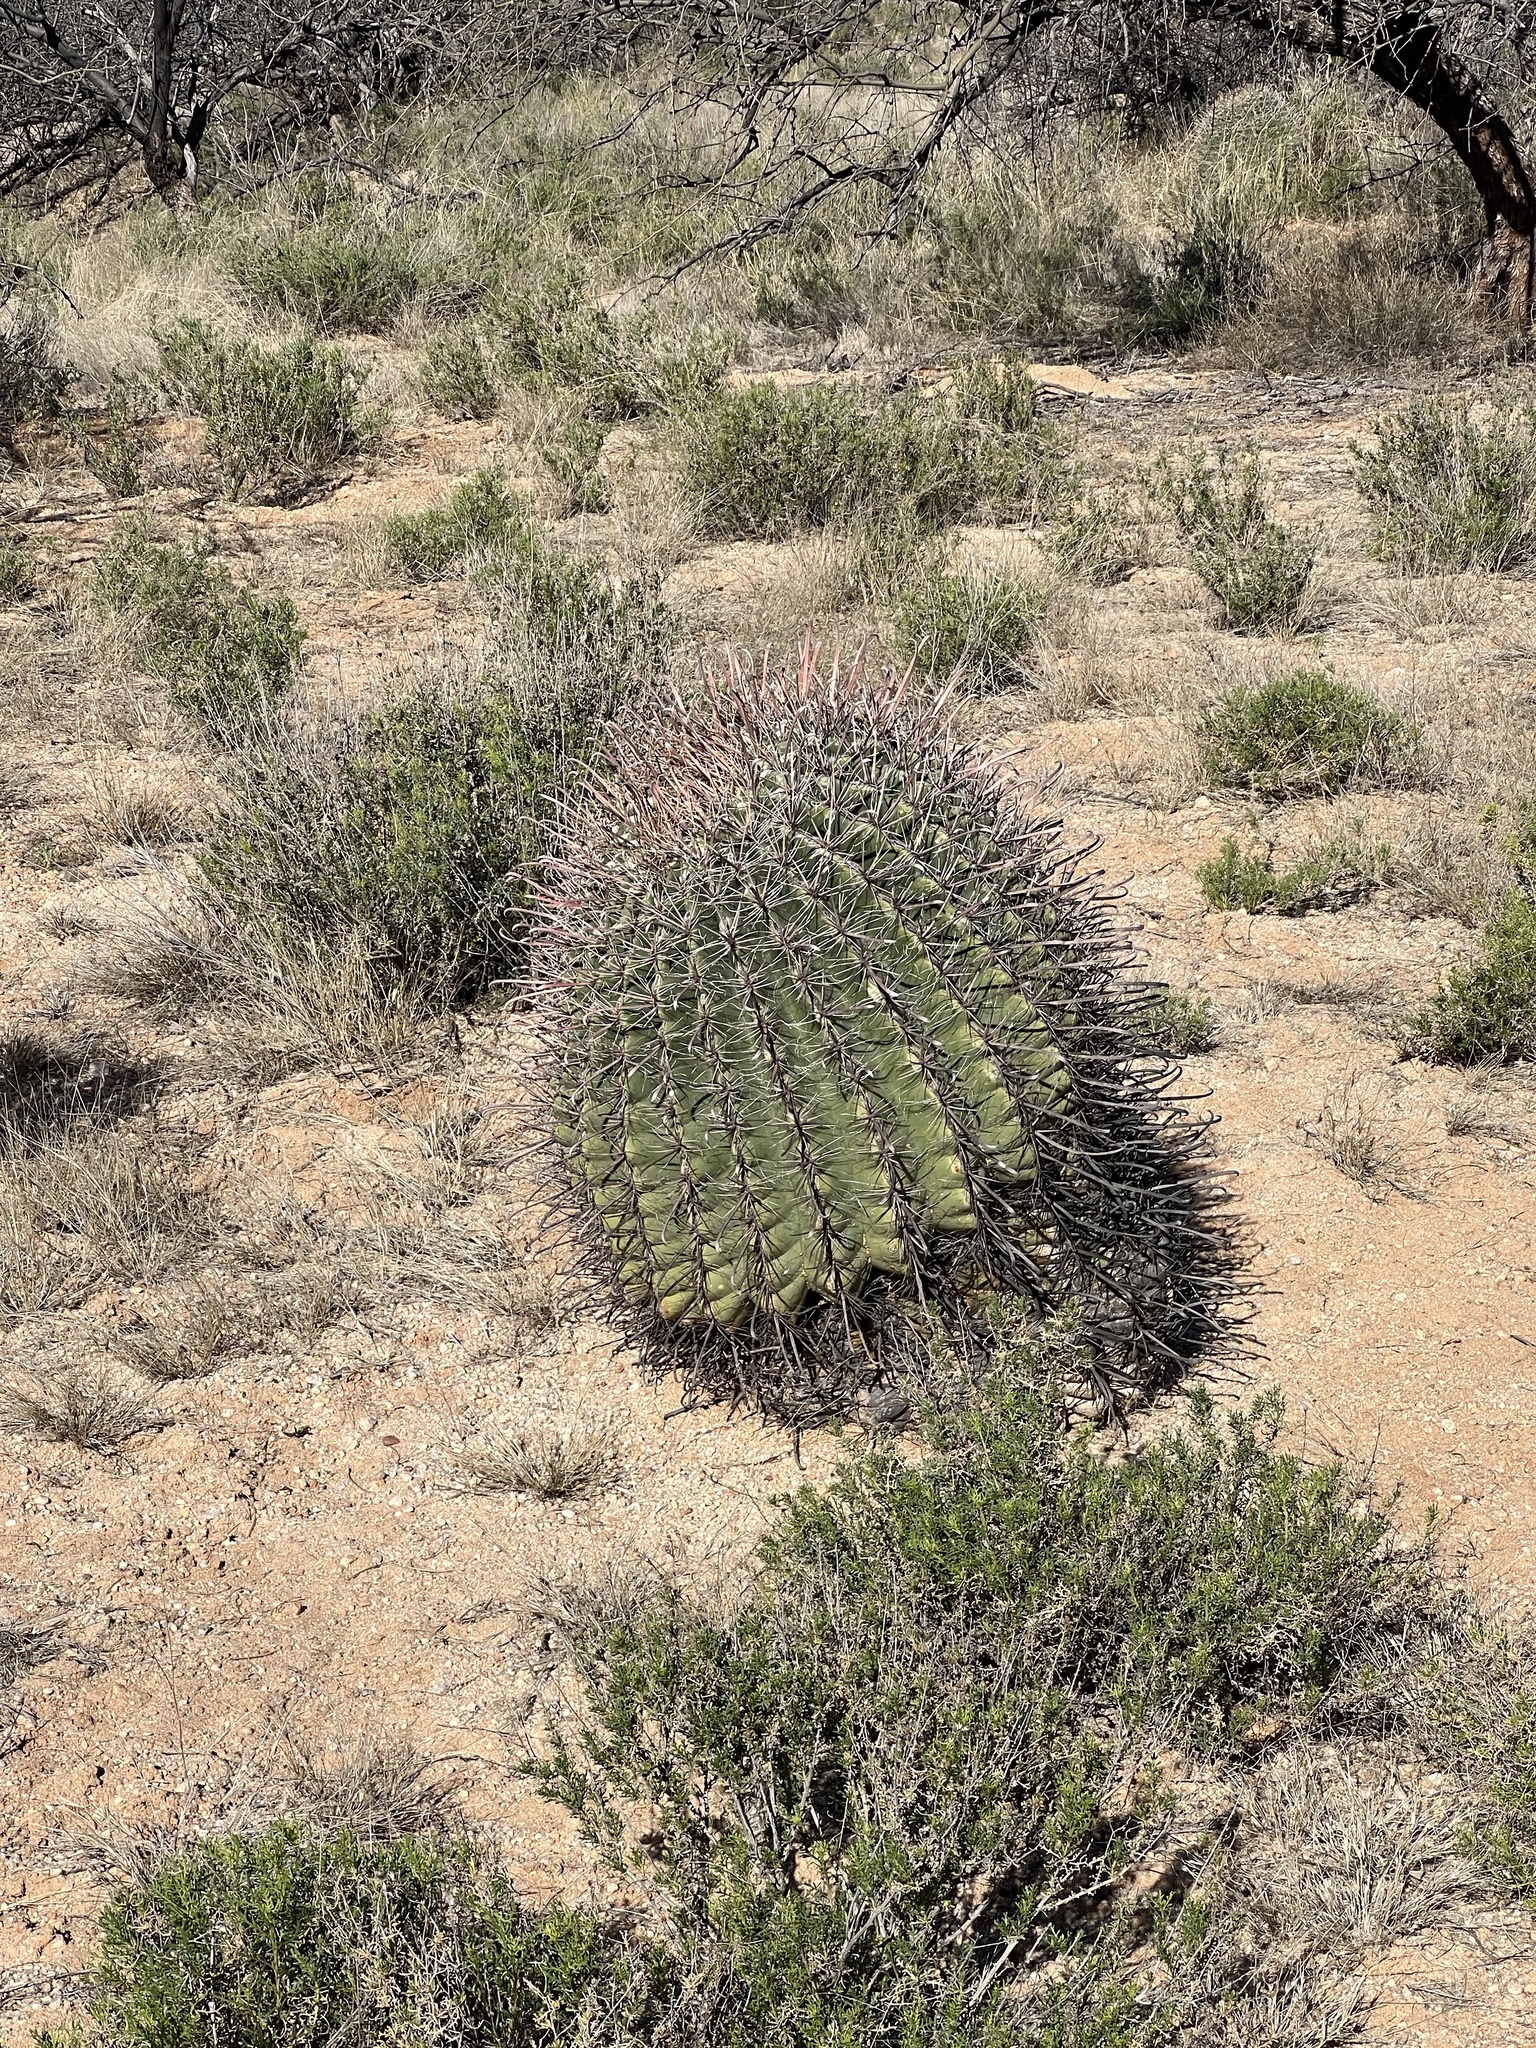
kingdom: Plantae
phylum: Tracheophyta
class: Magnoliopsida
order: Caryophyllales
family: Cactaceae
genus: Ferocactus
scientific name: Ferocactus wislizeni
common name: Candy barrel cactus
